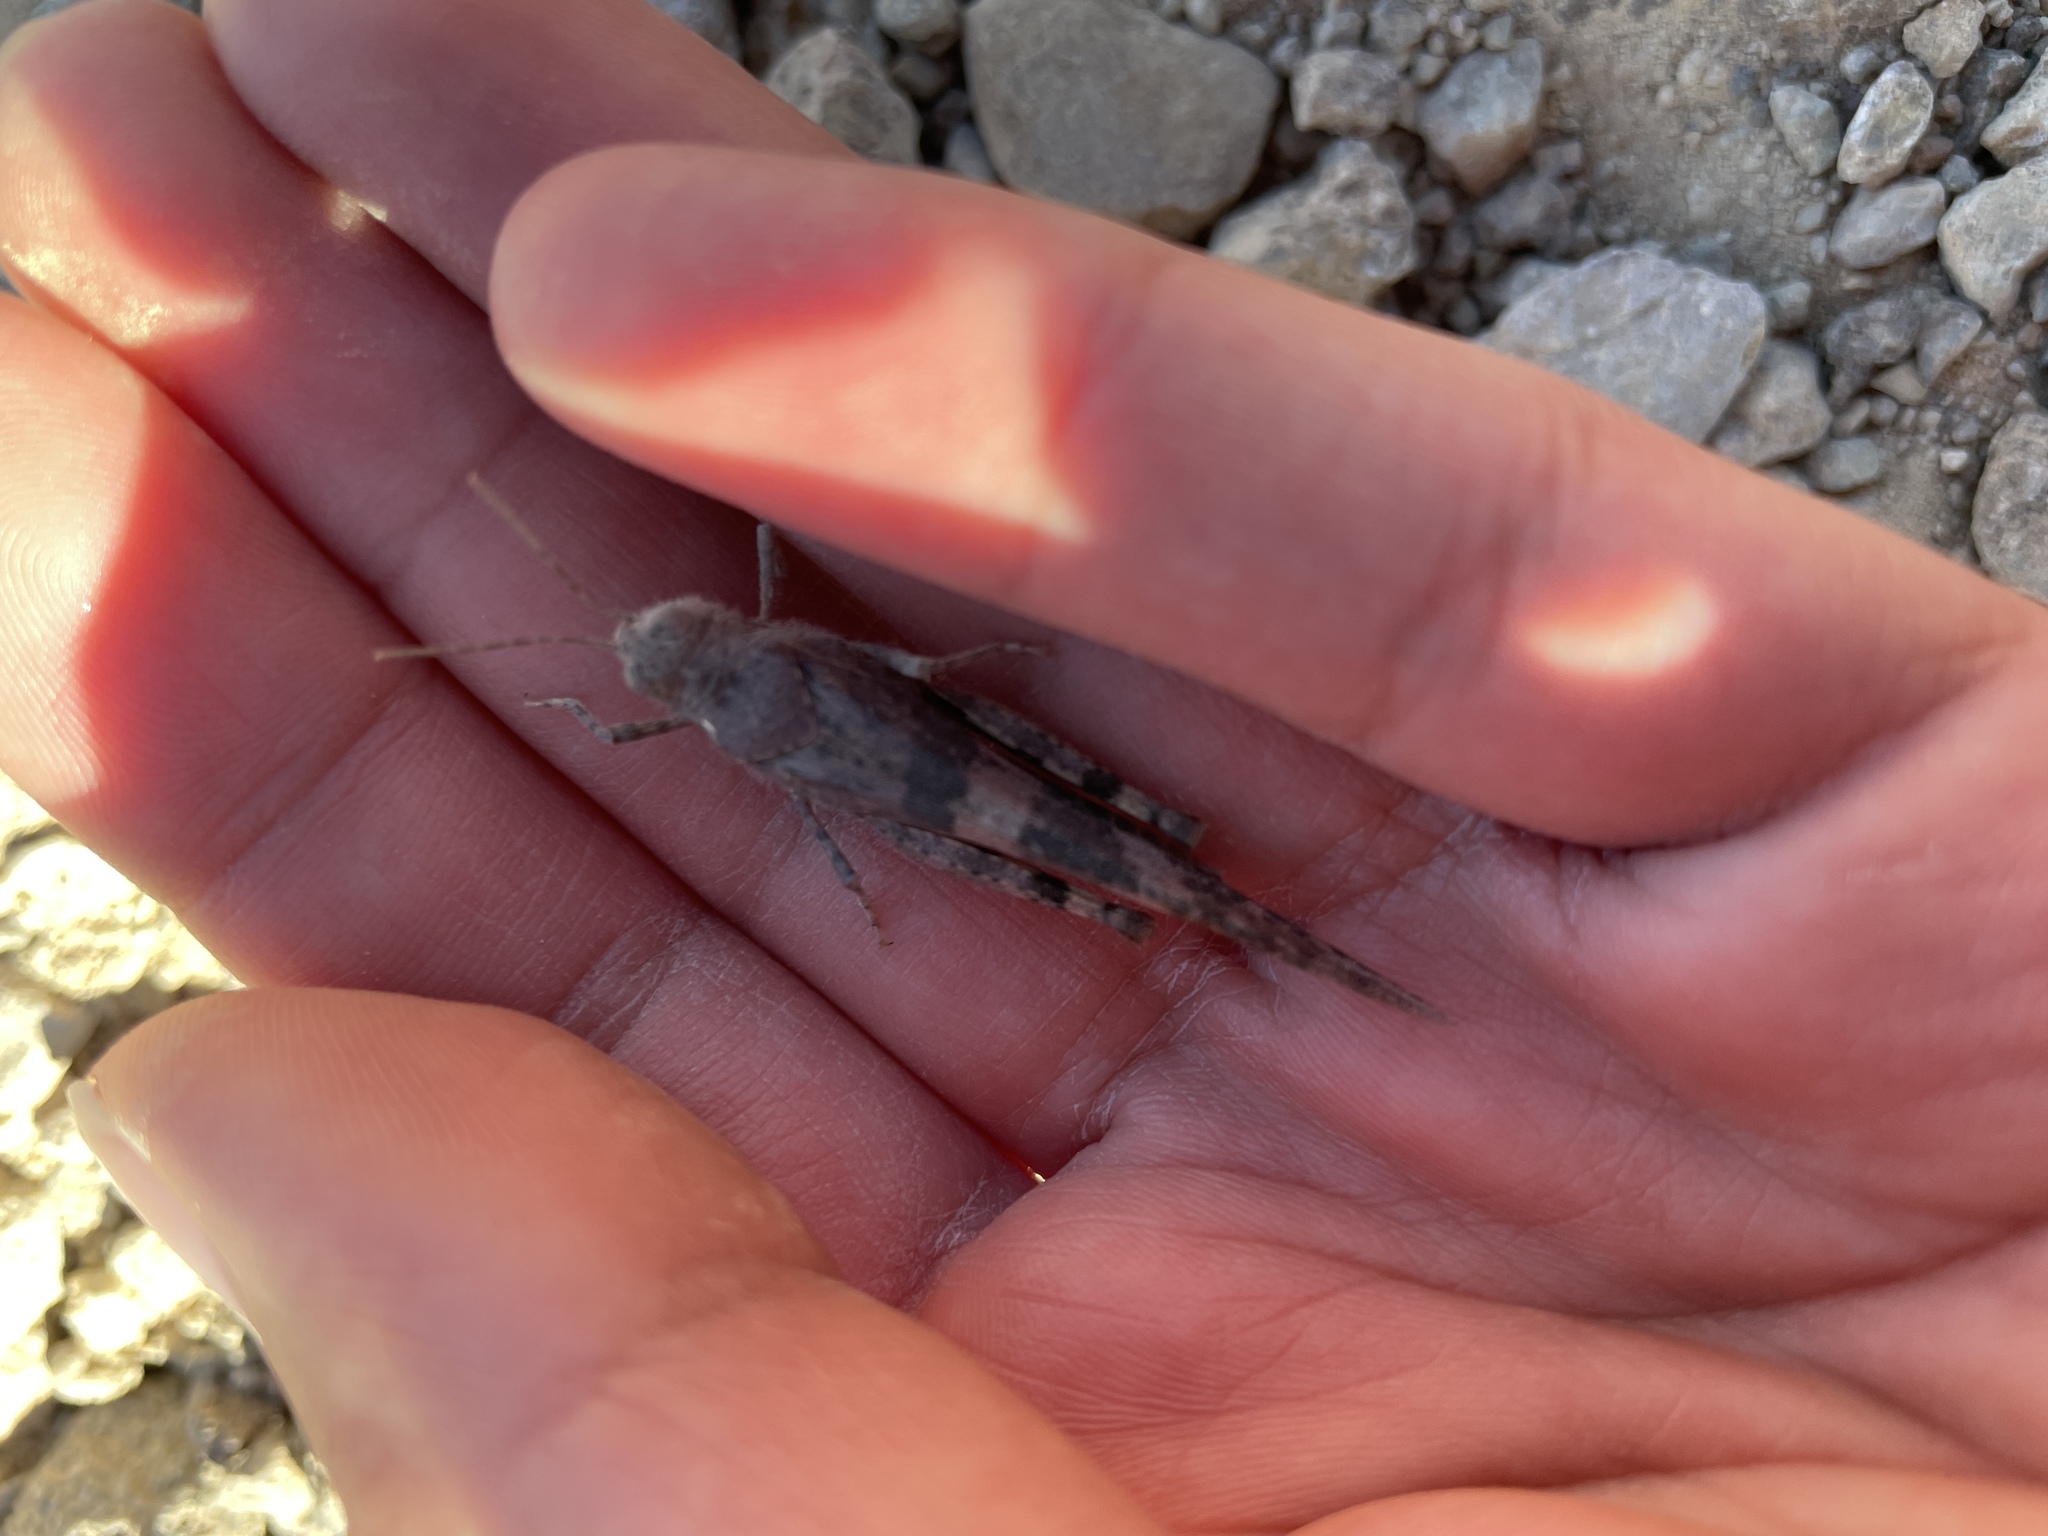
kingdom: Animalia
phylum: Arthropoda
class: Insecta
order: Orthoptera
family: Acrididae
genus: Trimerotropis
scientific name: Trimerotropis pallidipennis
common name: Pallid-winged grasshopper
